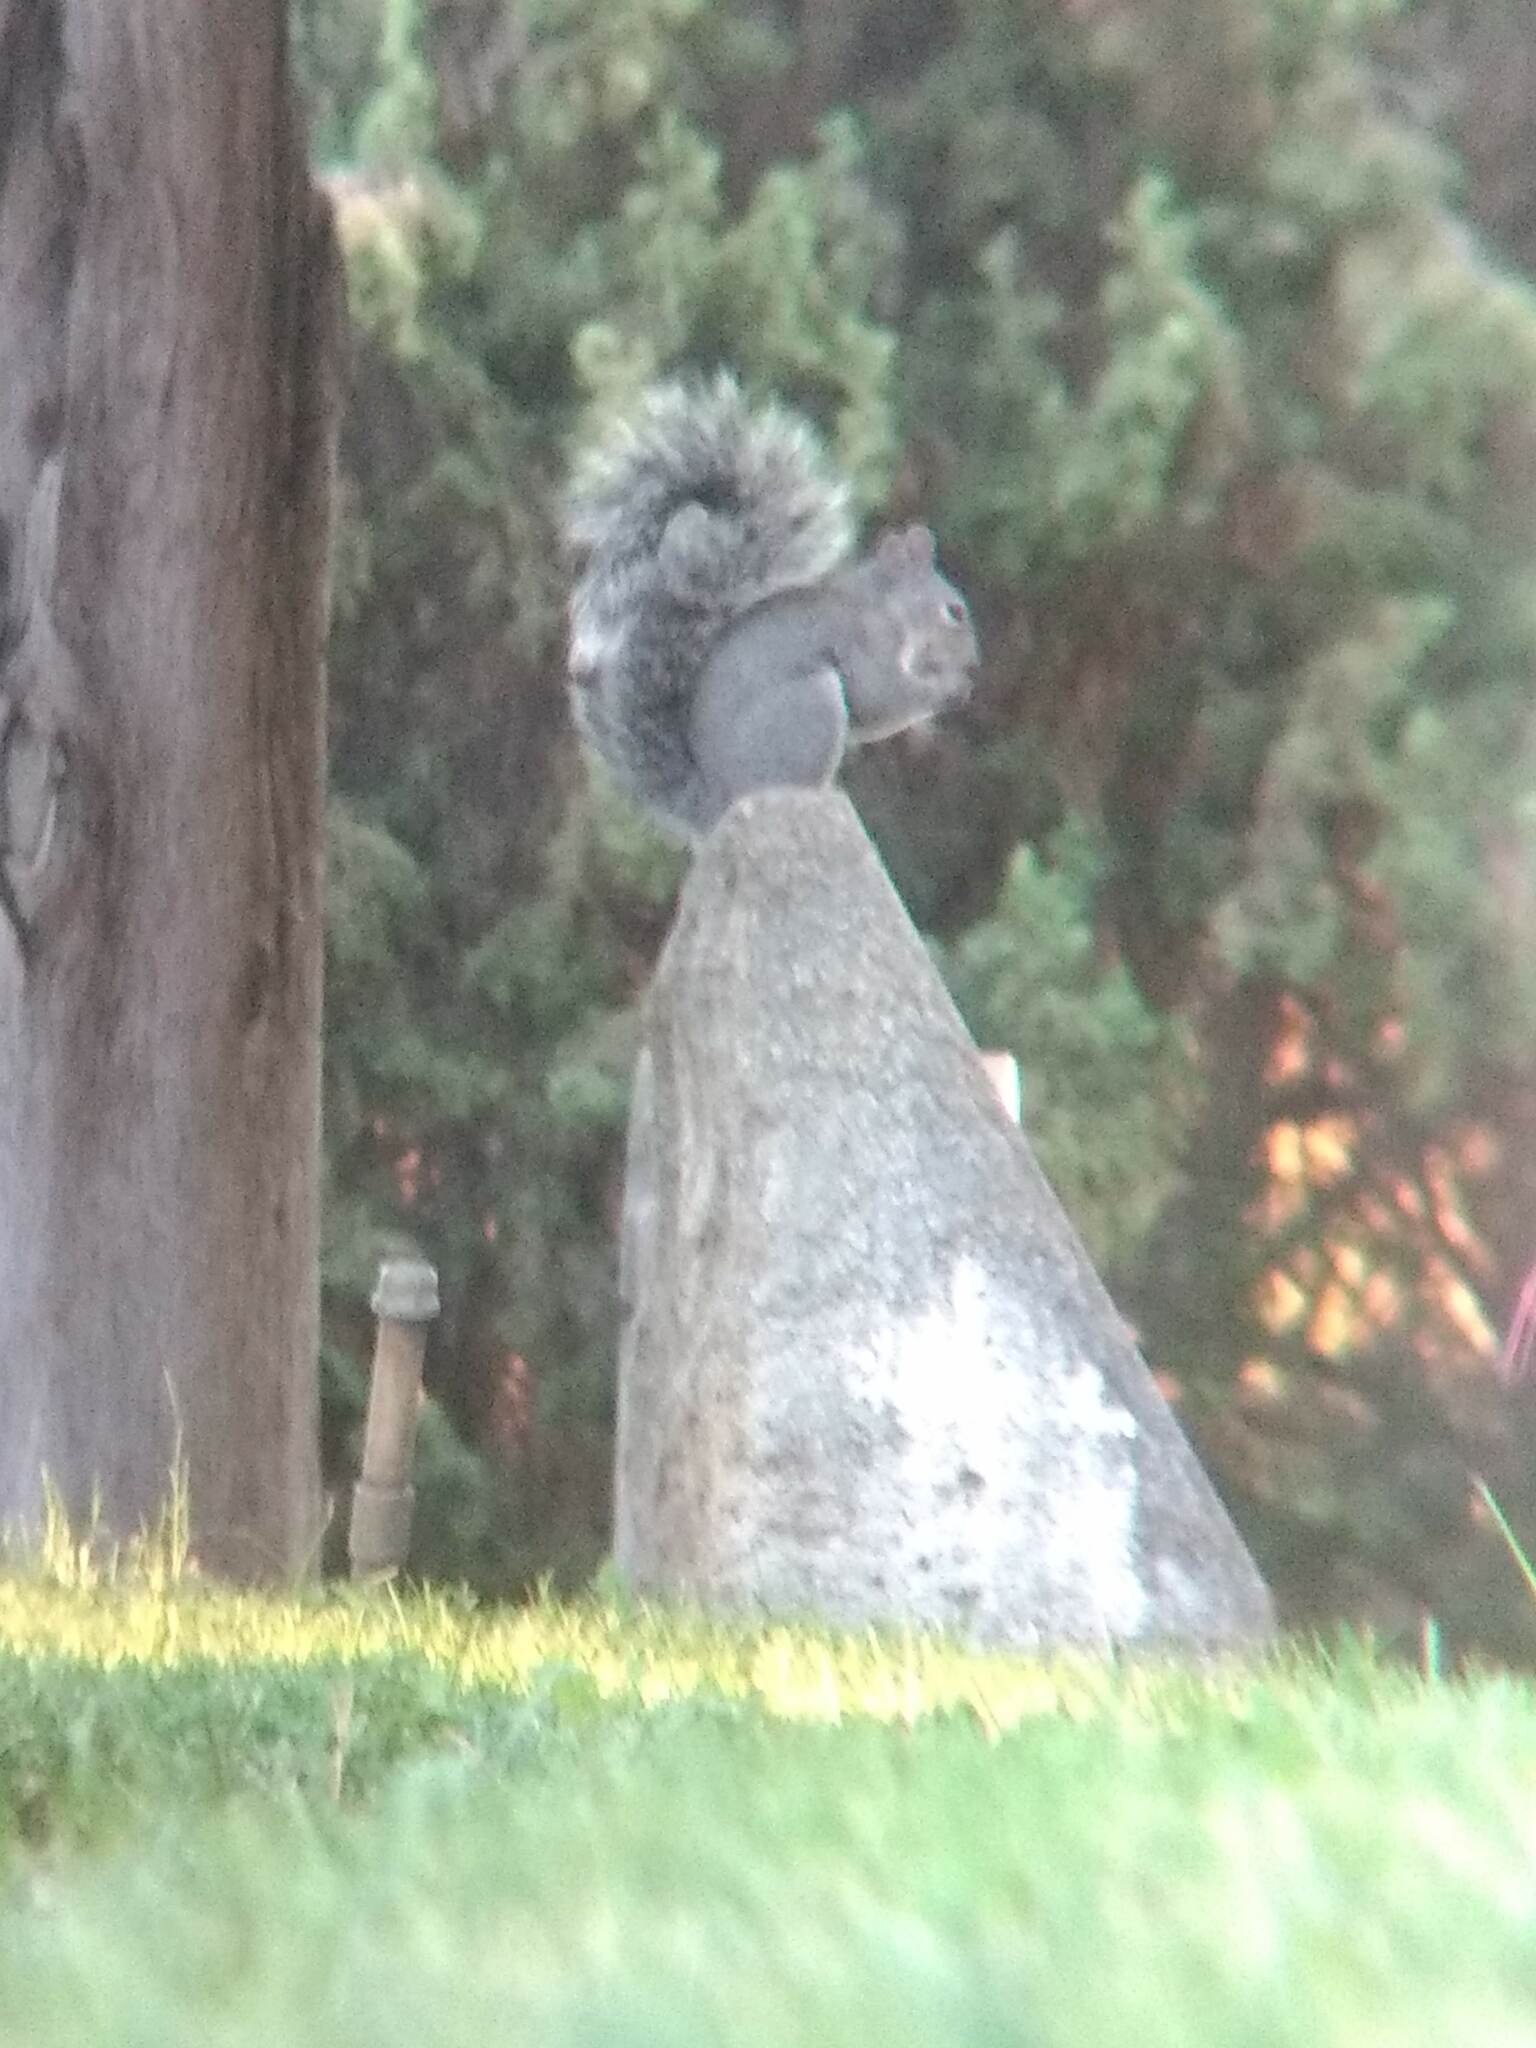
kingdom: Animalia
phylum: Chordata
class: Mammalia
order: Rodentia
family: Sciuridae
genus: Sciurus
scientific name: Sciurus griseus
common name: Western gray squirrel
